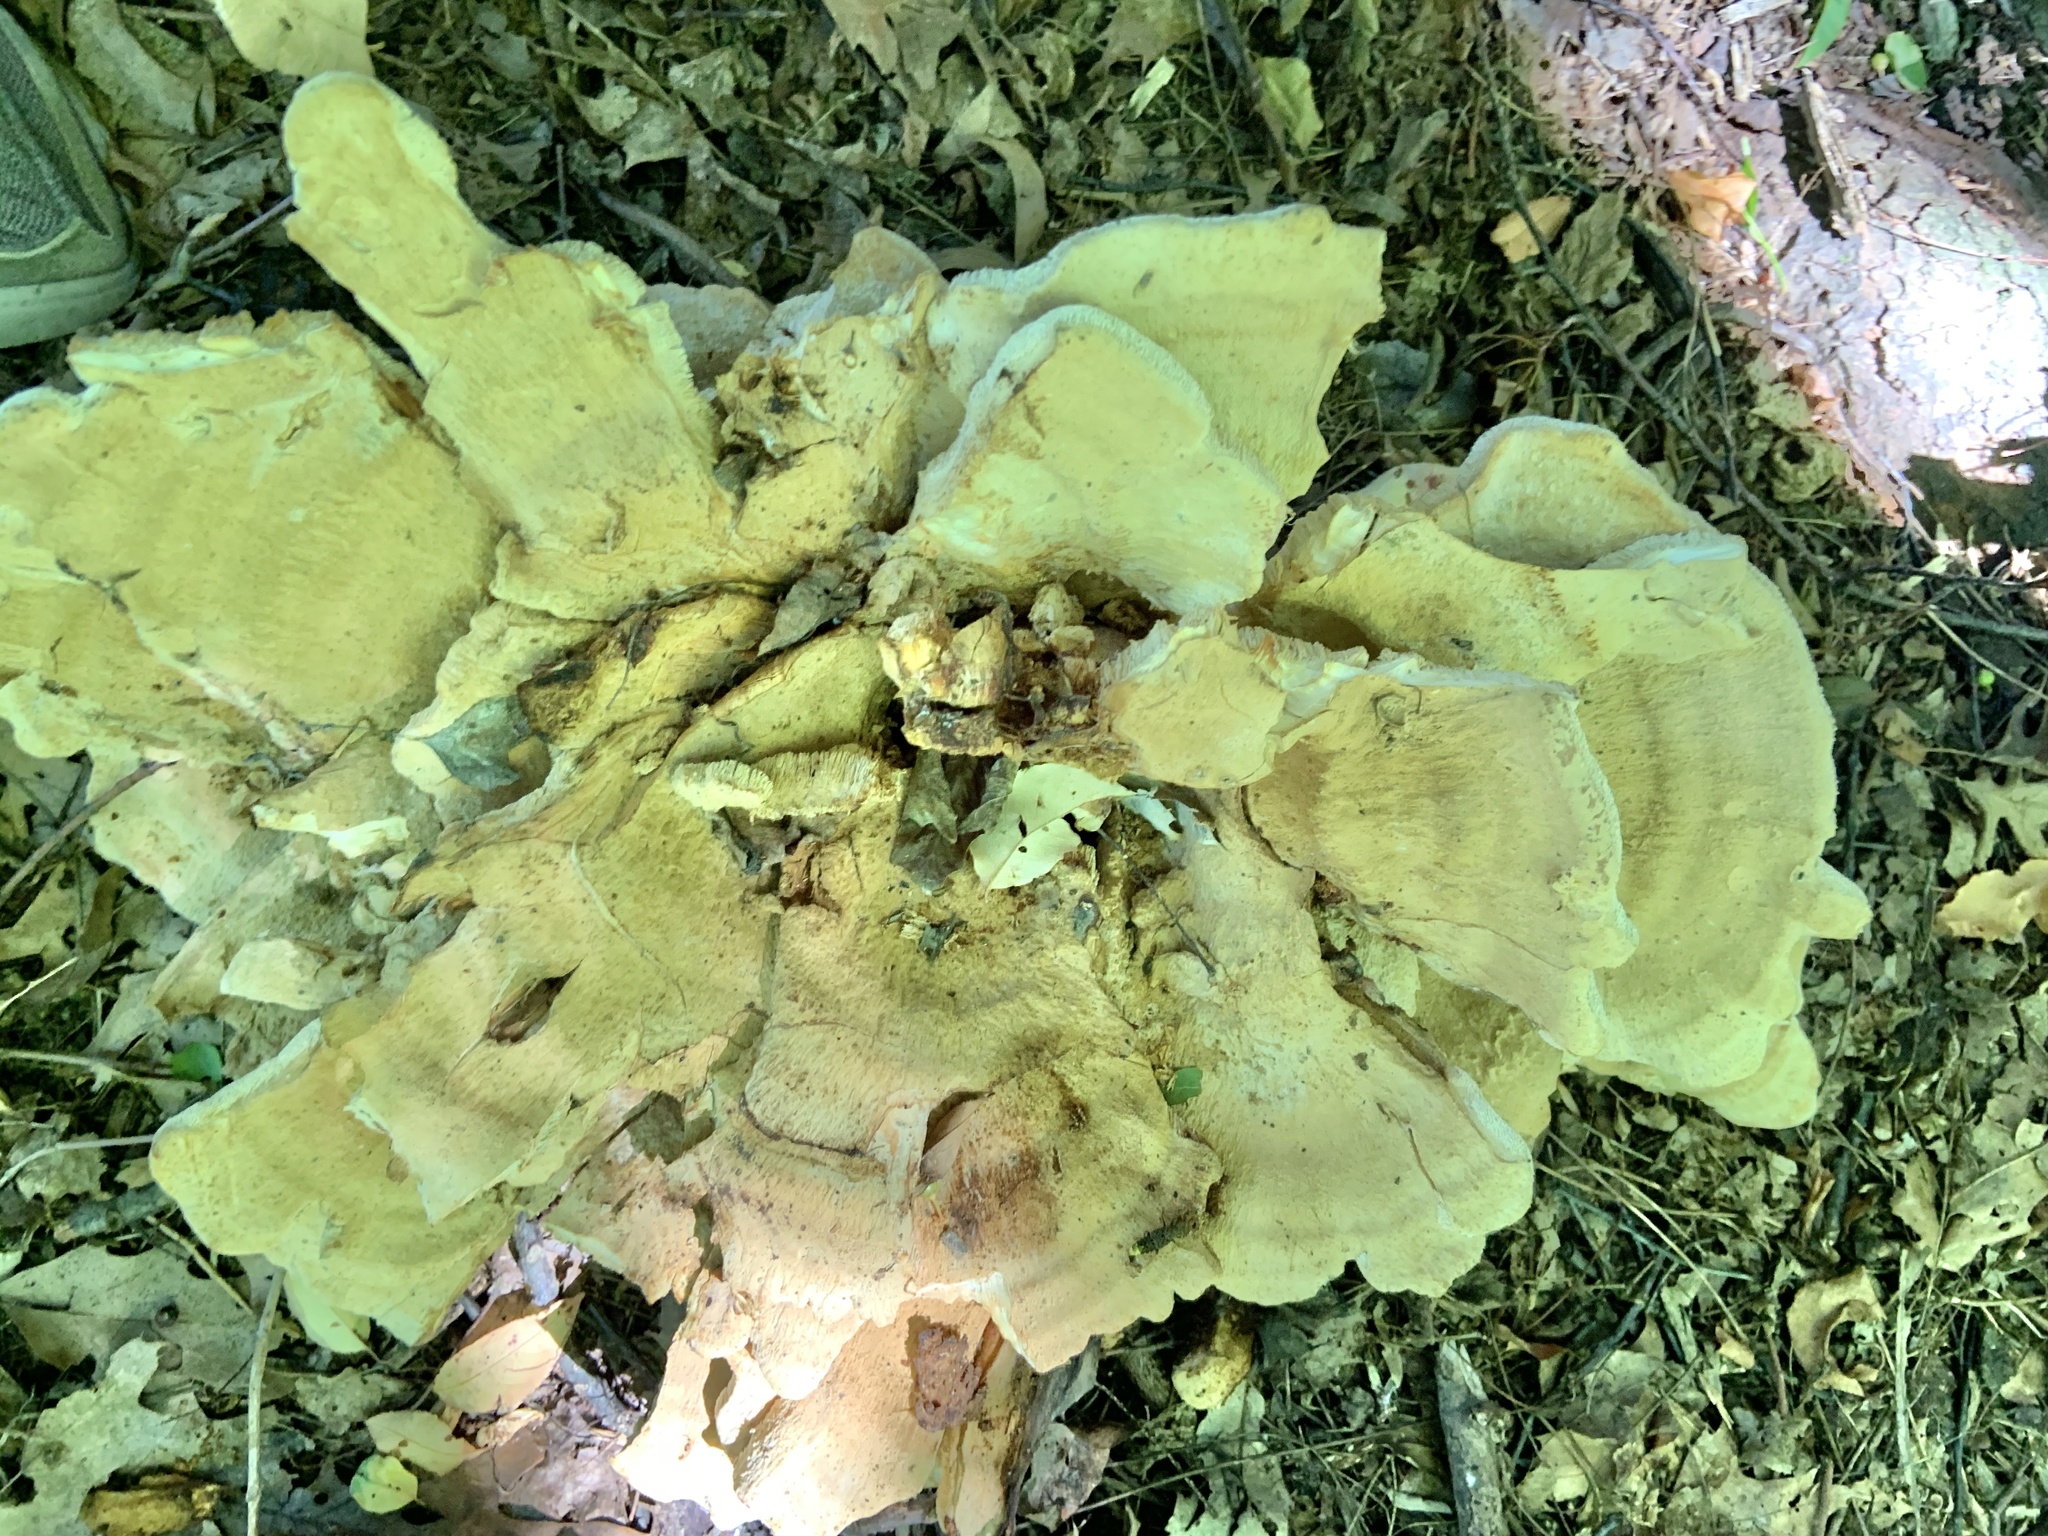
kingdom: Fungi
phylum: Basidiomycota
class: Agaricomycetes
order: Russulales
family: Bondarzewiaceae
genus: Bondarzewia
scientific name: Bondarzewia berkeleyi
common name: Berkeley's polypore
